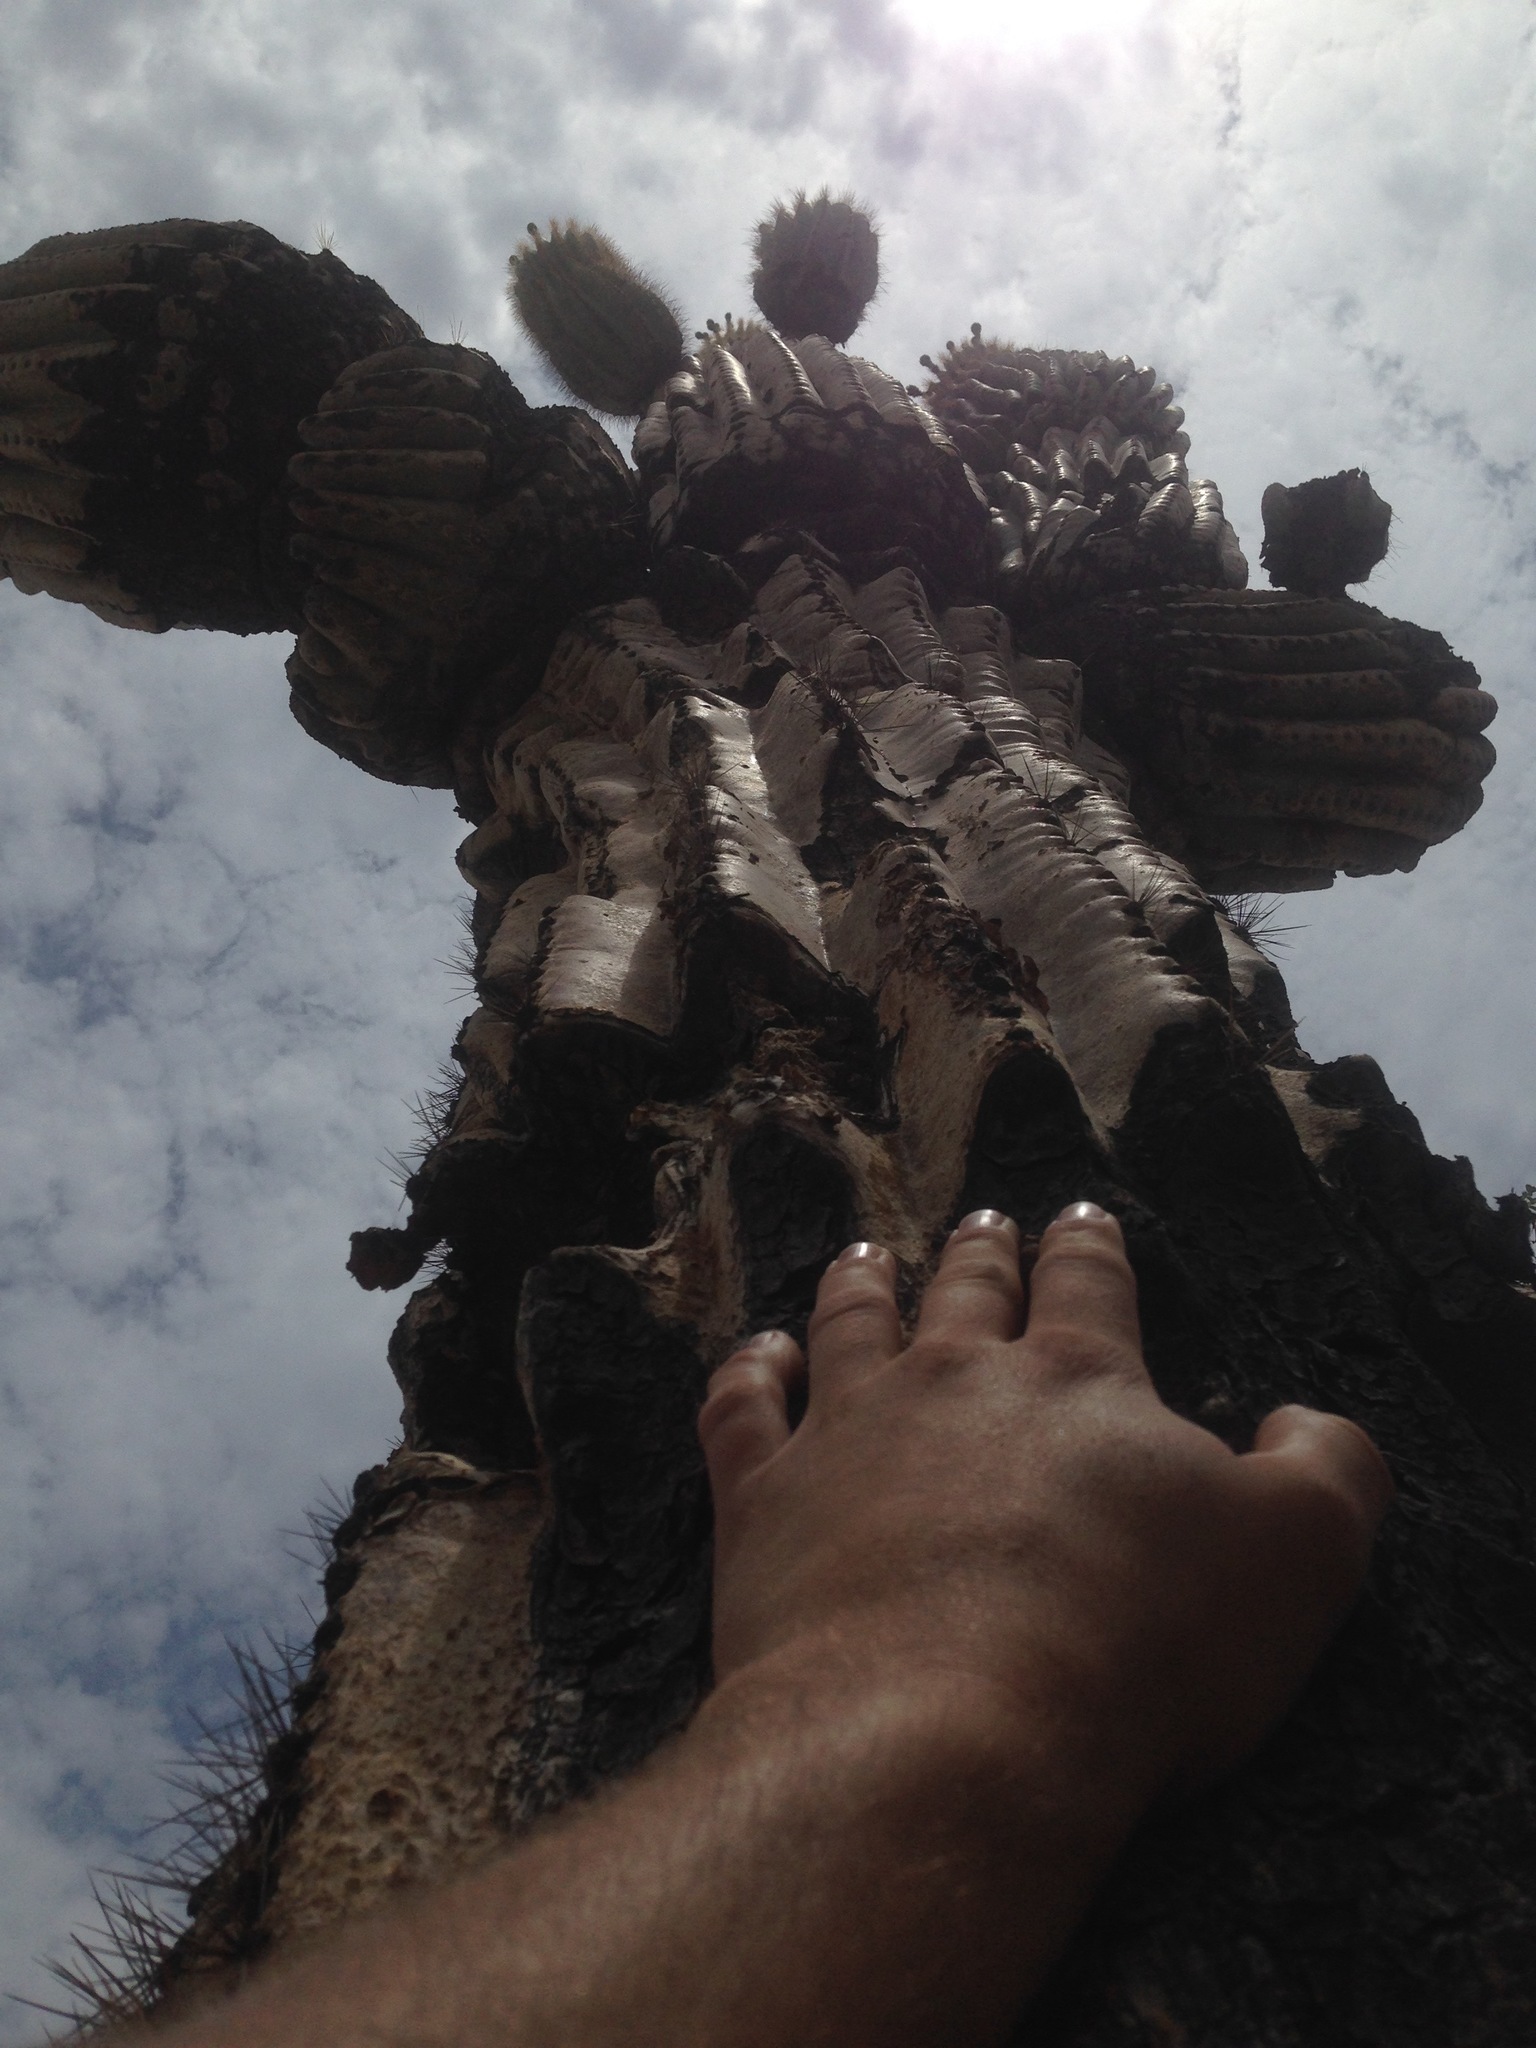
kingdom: Plantae
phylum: Tracheophyta
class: Magnoliopsida
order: Caryophyllales
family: Cactaceae
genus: Carnegiea
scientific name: Carnegiea gigantea
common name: Saguaro
